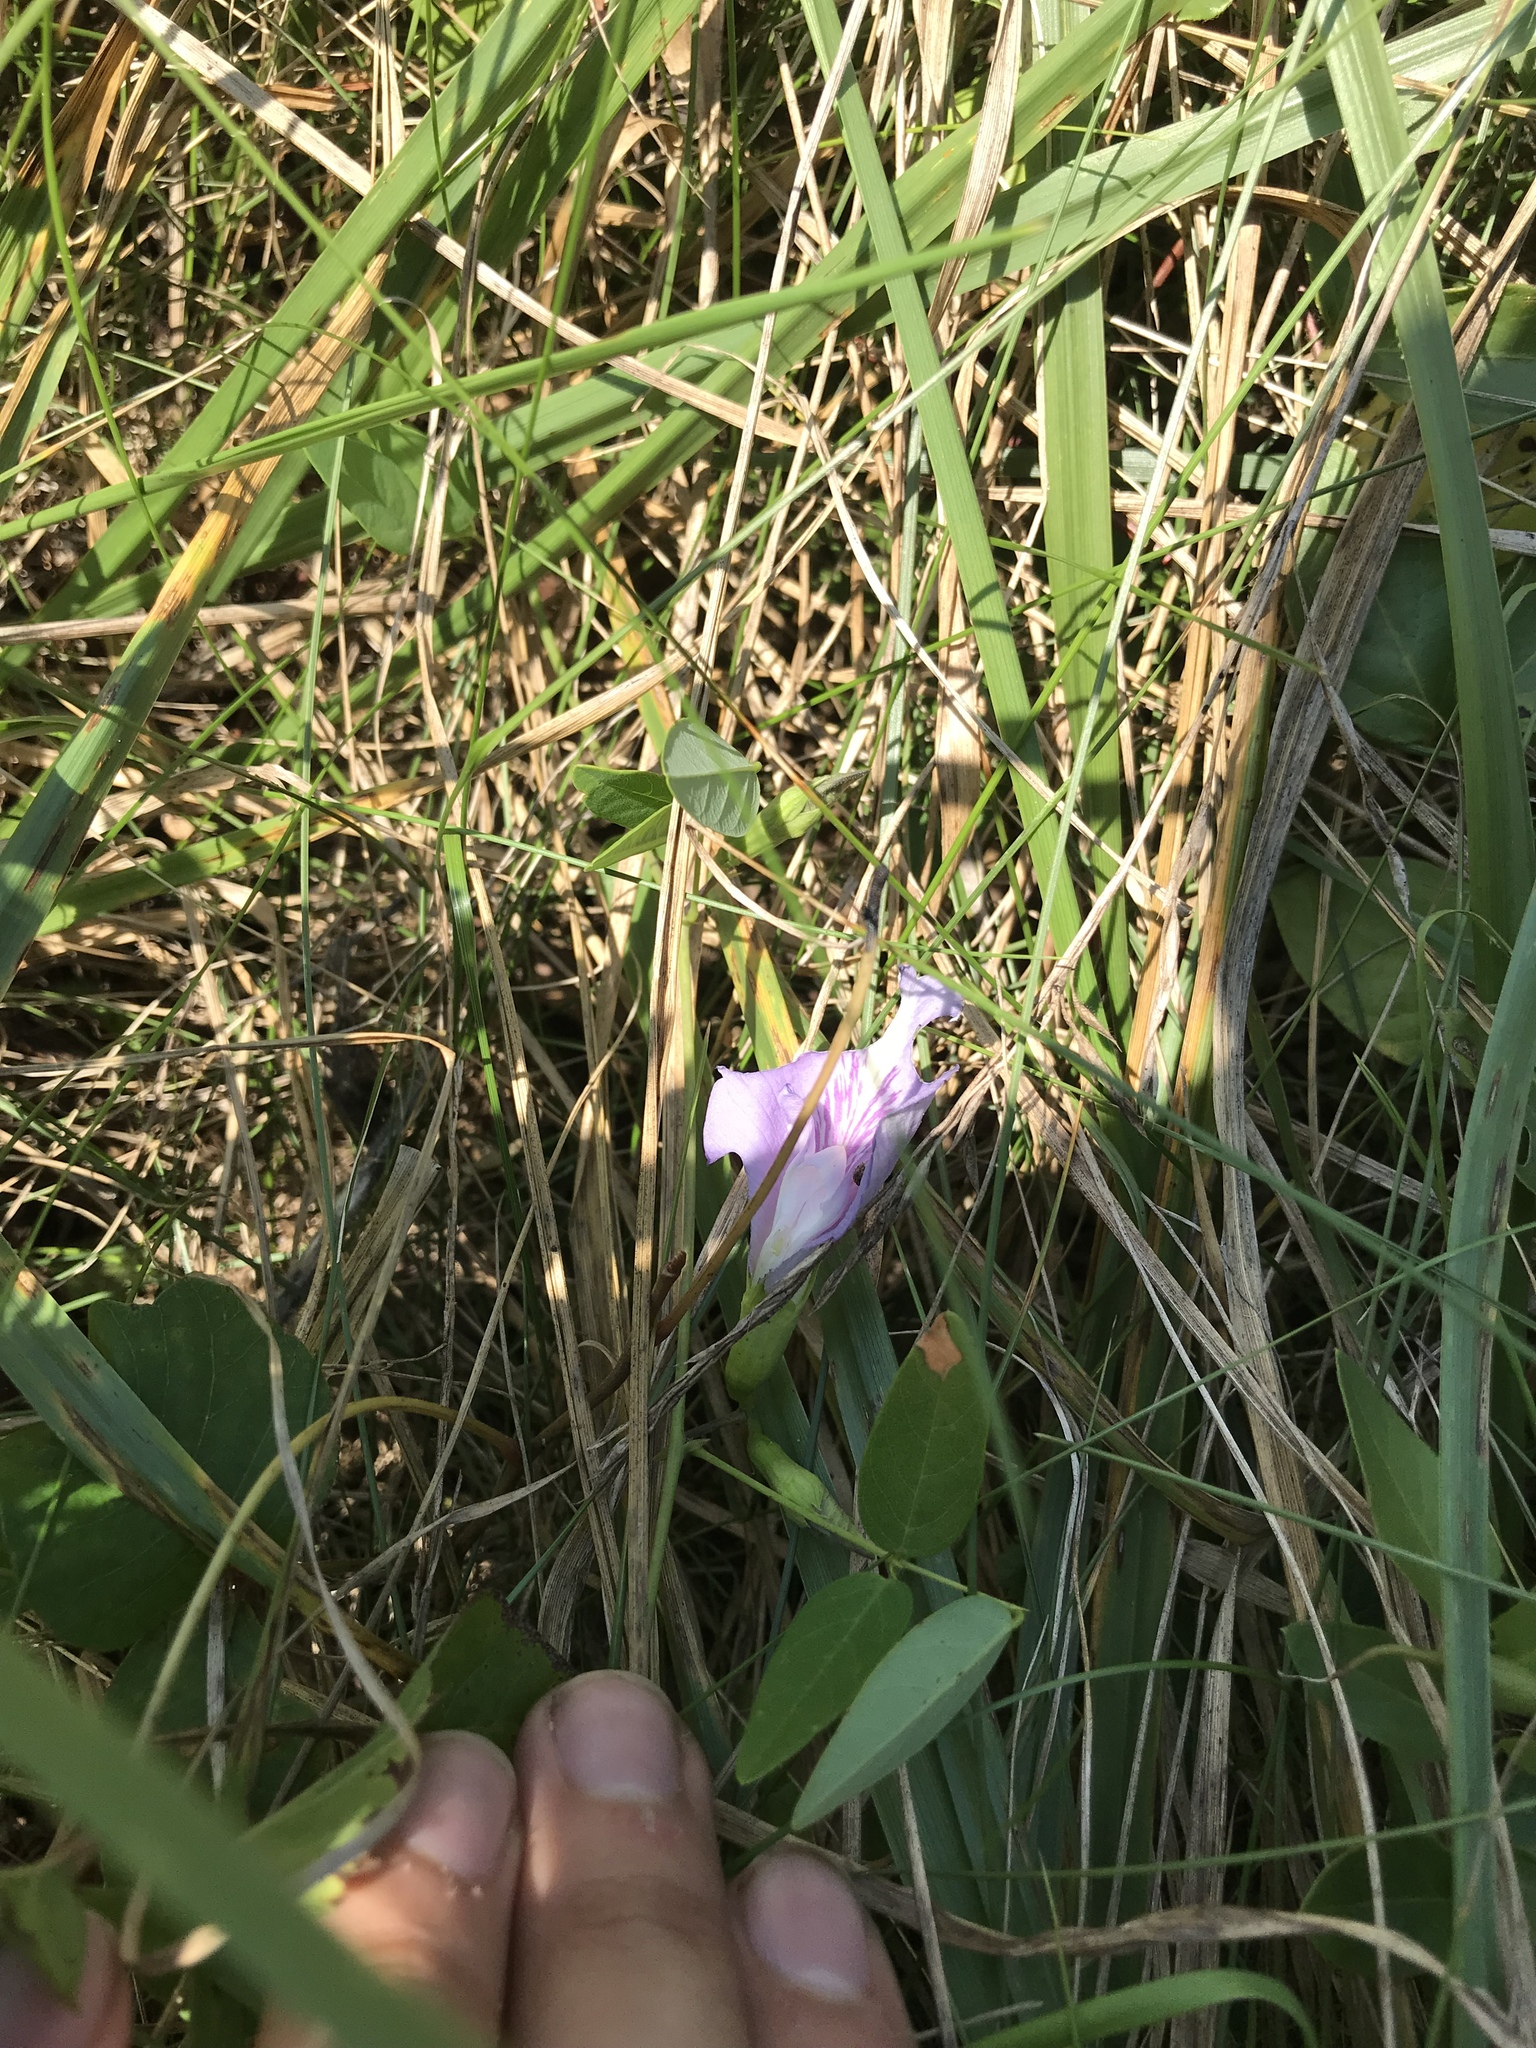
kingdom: Plantae
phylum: Tracheophyta
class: Magnoliopsida
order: Fabales
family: Fabaceae
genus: Clitoria
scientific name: Clitoria mariana
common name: Butterfly-pea
